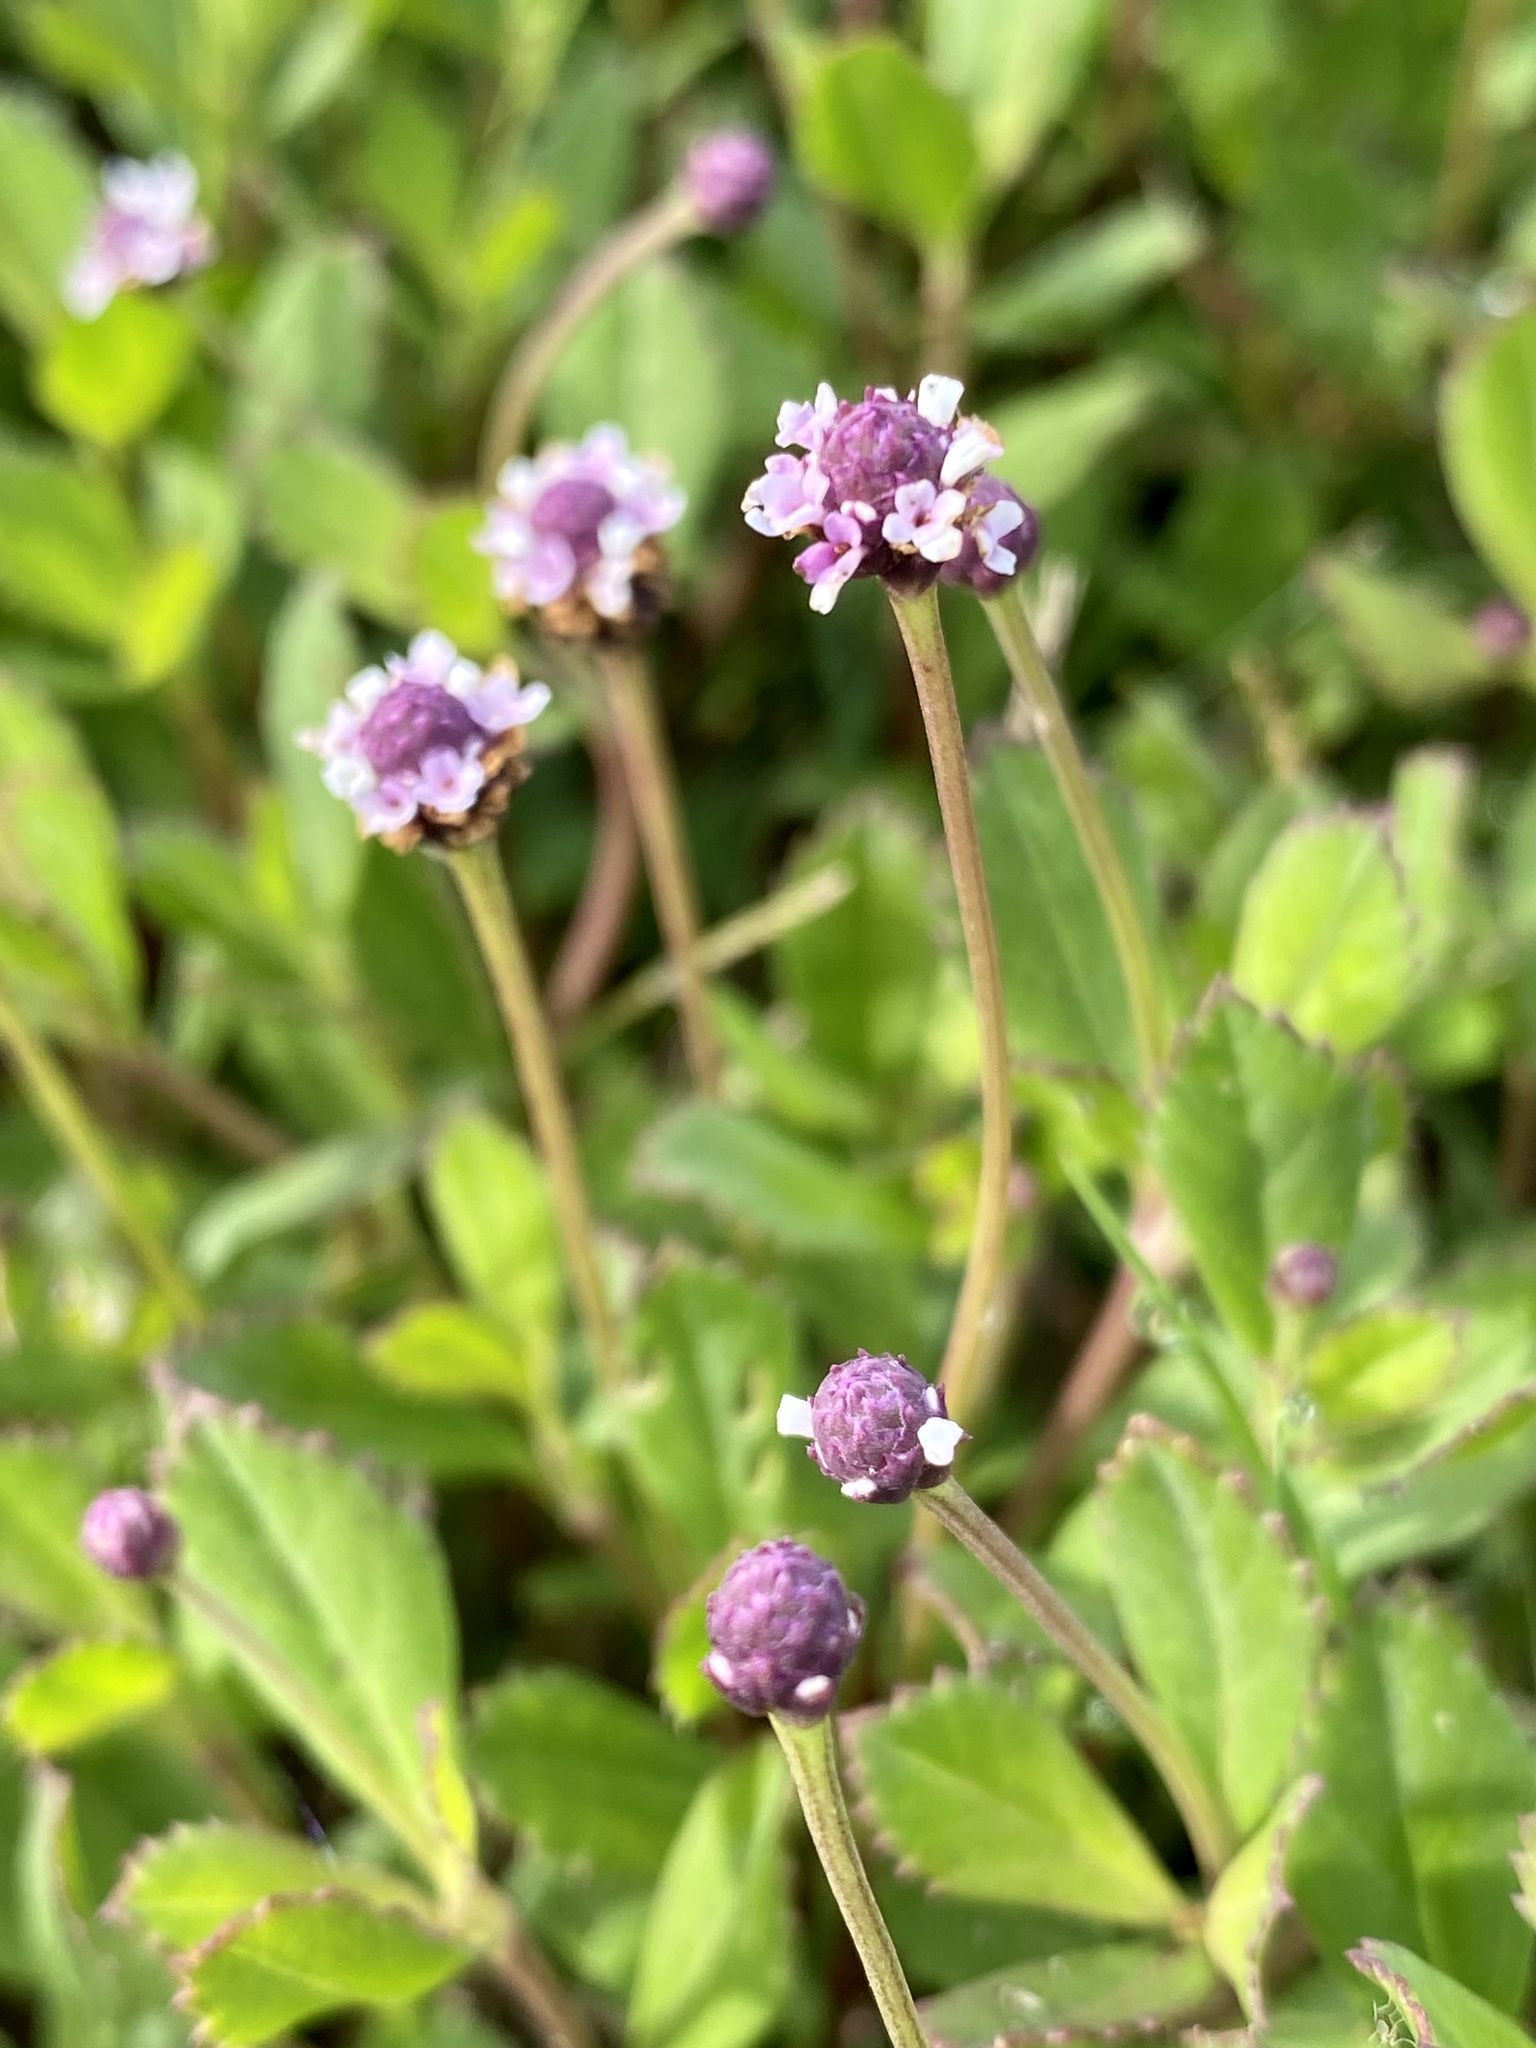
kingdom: Plantae
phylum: Tracheophyta
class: Magnoliopsida
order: Lamiales
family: Verbenaceae
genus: Phyla
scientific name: Phyla nodiflora
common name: Frogfruit
